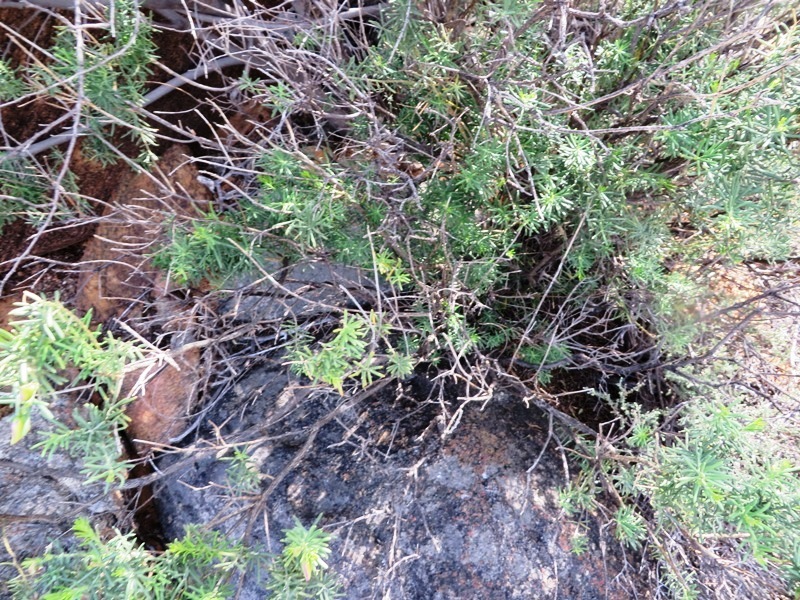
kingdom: Plantae
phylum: Tracheophyta
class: Magnoliopsida
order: Fabales
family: Polygalaceae
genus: Polygala
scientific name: Polygala lasiosepala
